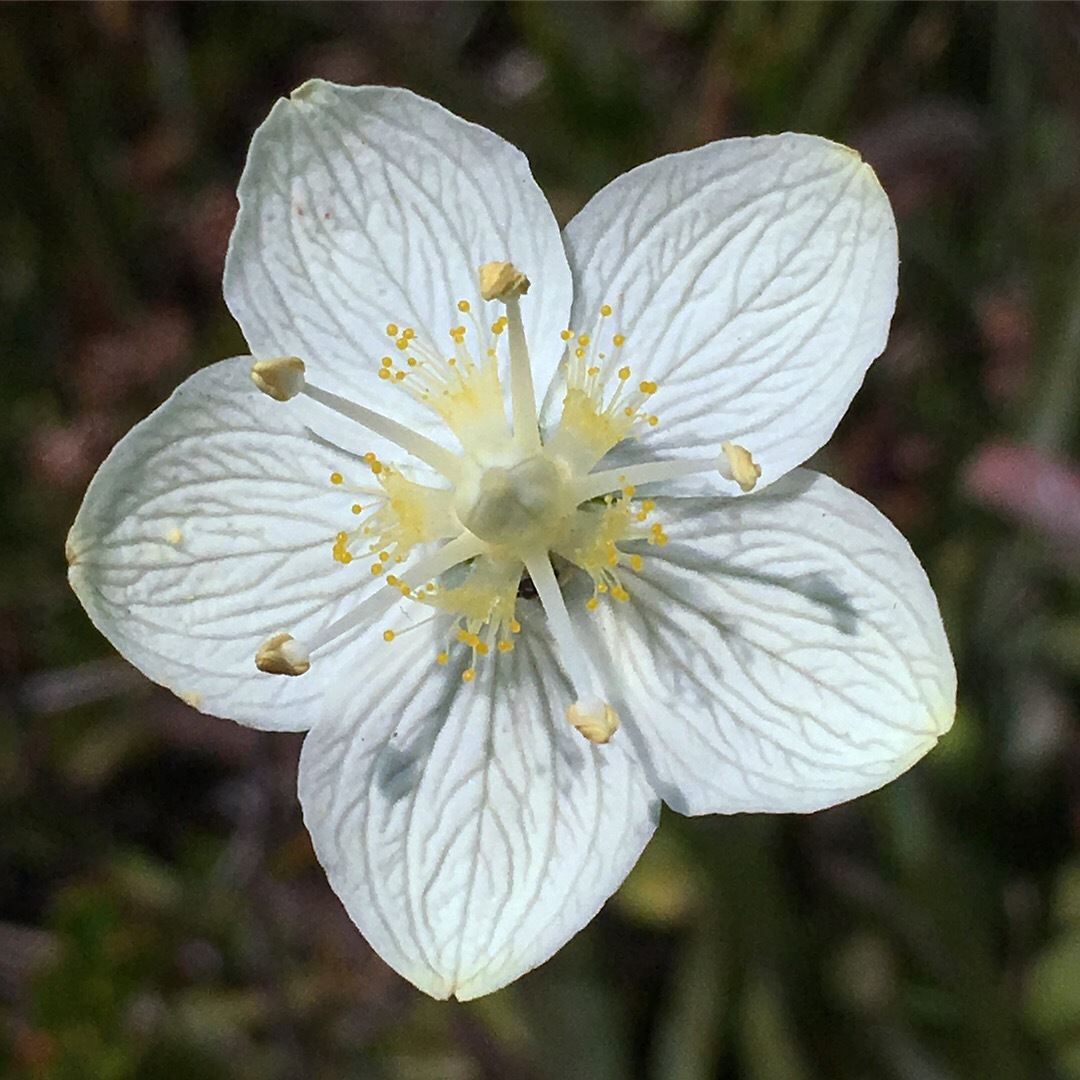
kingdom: Plantae
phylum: Tracheophyta
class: Magnoliopsida
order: Celastrales
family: Parnassiaceae
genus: Parnassia
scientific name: Parnassia palustris
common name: Grass-of-parnassus
